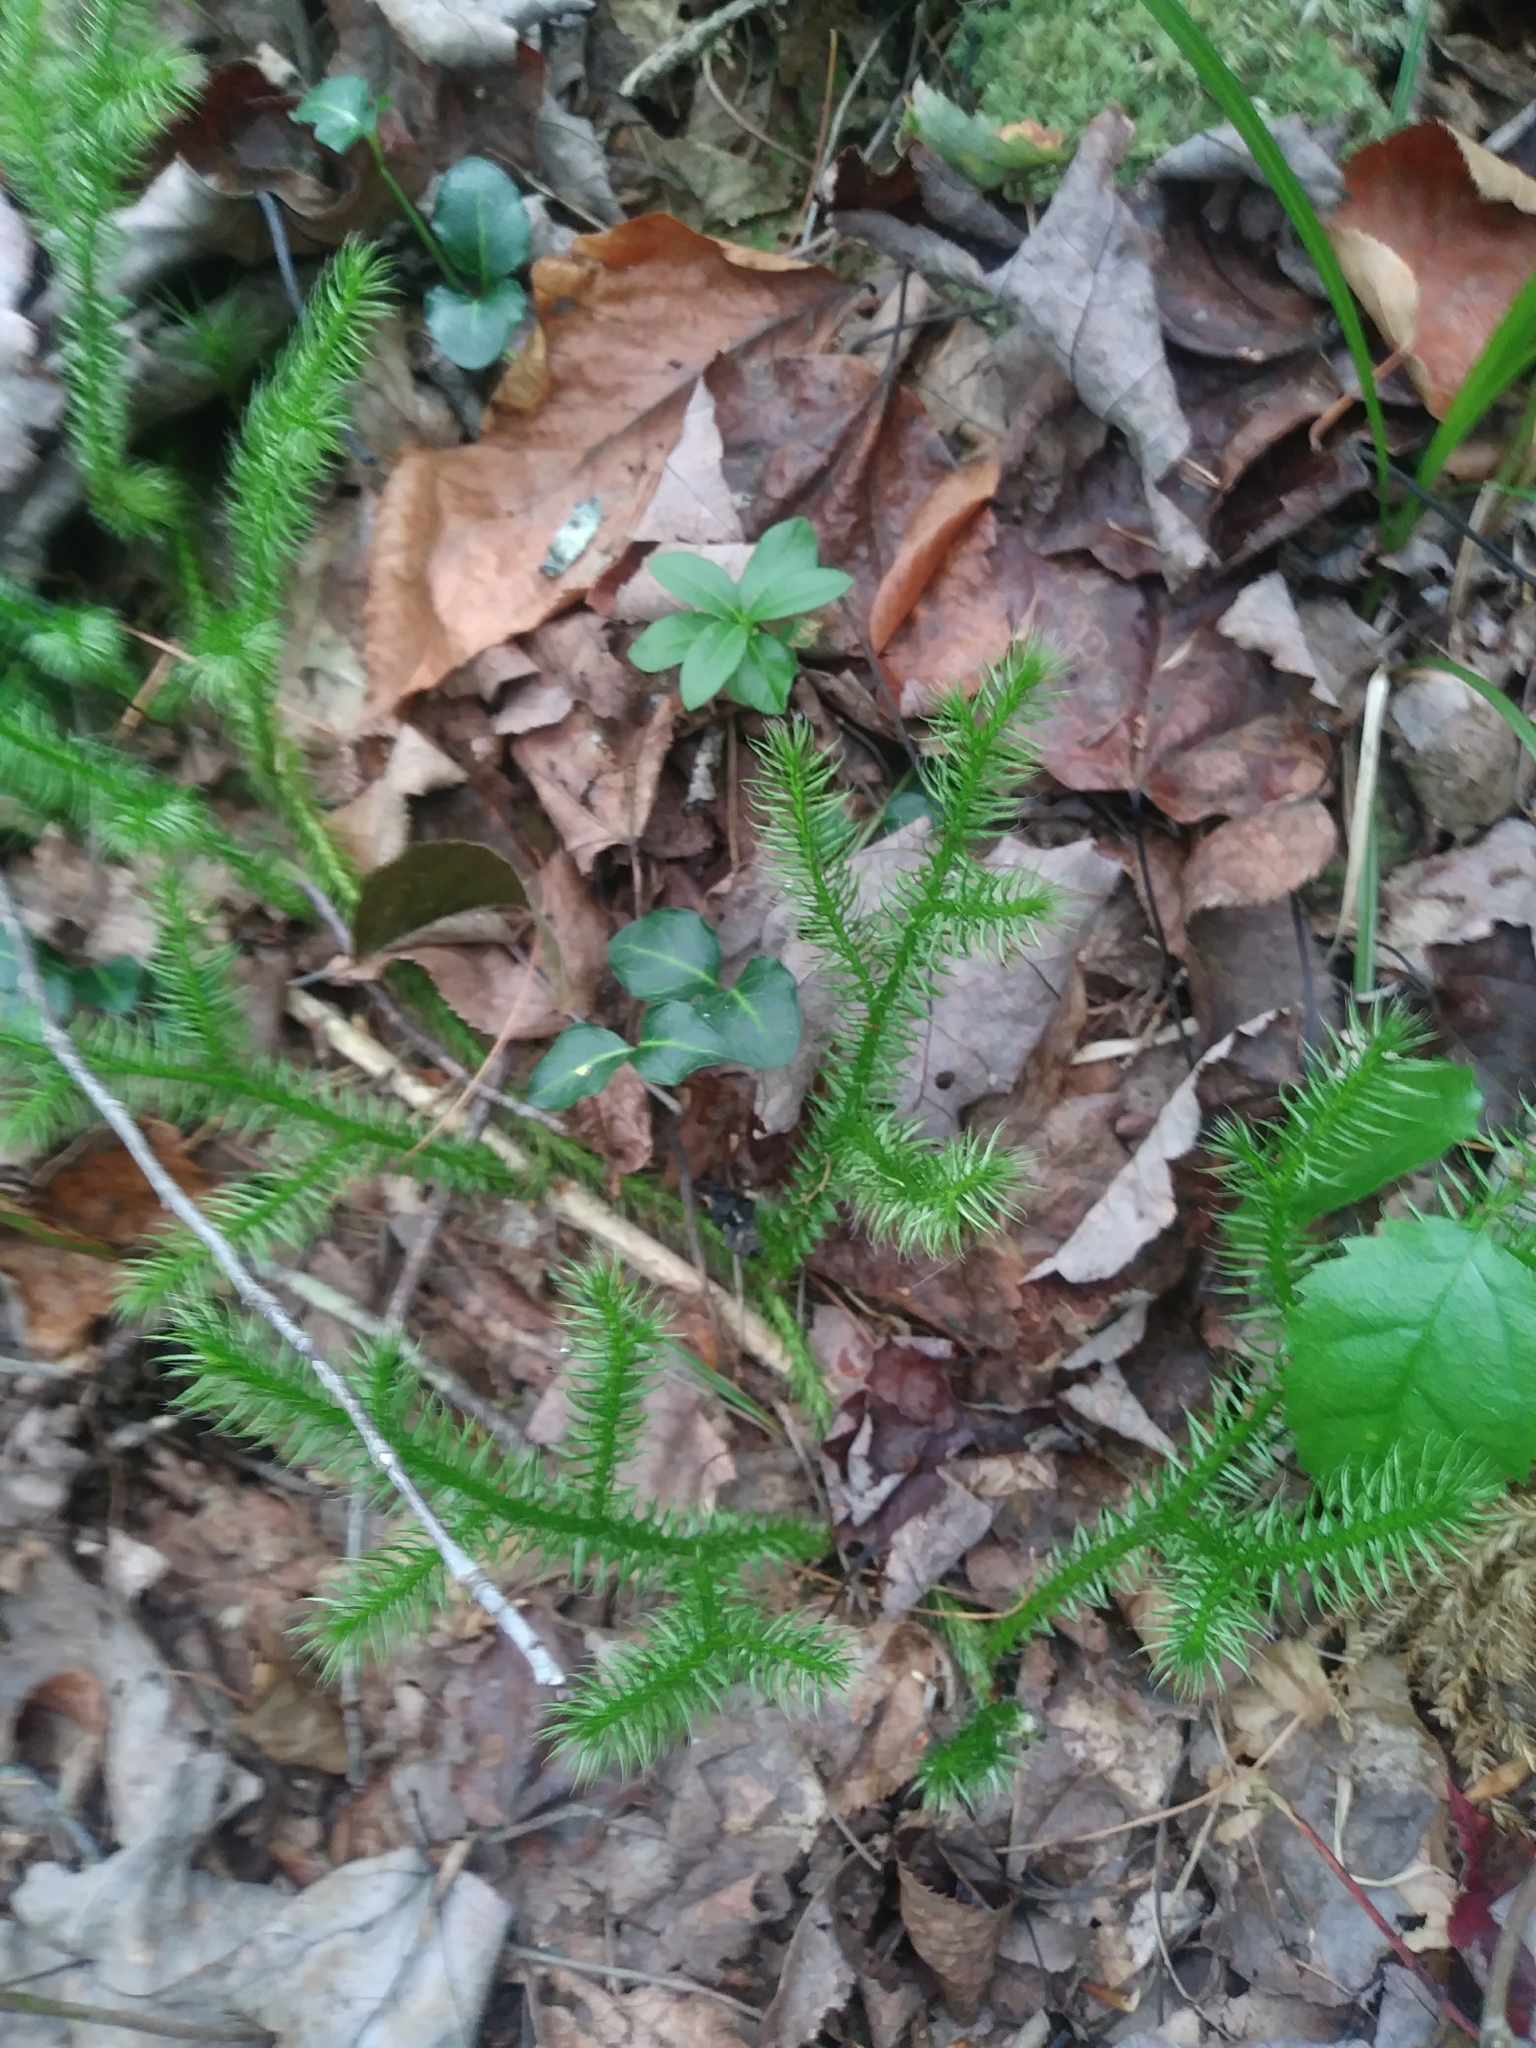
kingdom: Plantae
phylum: Tracheophyta
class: Lycopodiopsida
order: Lycopodiales
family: Lycopodiaceae
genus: Lycopodium
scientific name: Lycopodium clavatum
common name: Stag's-horn clubmoss
